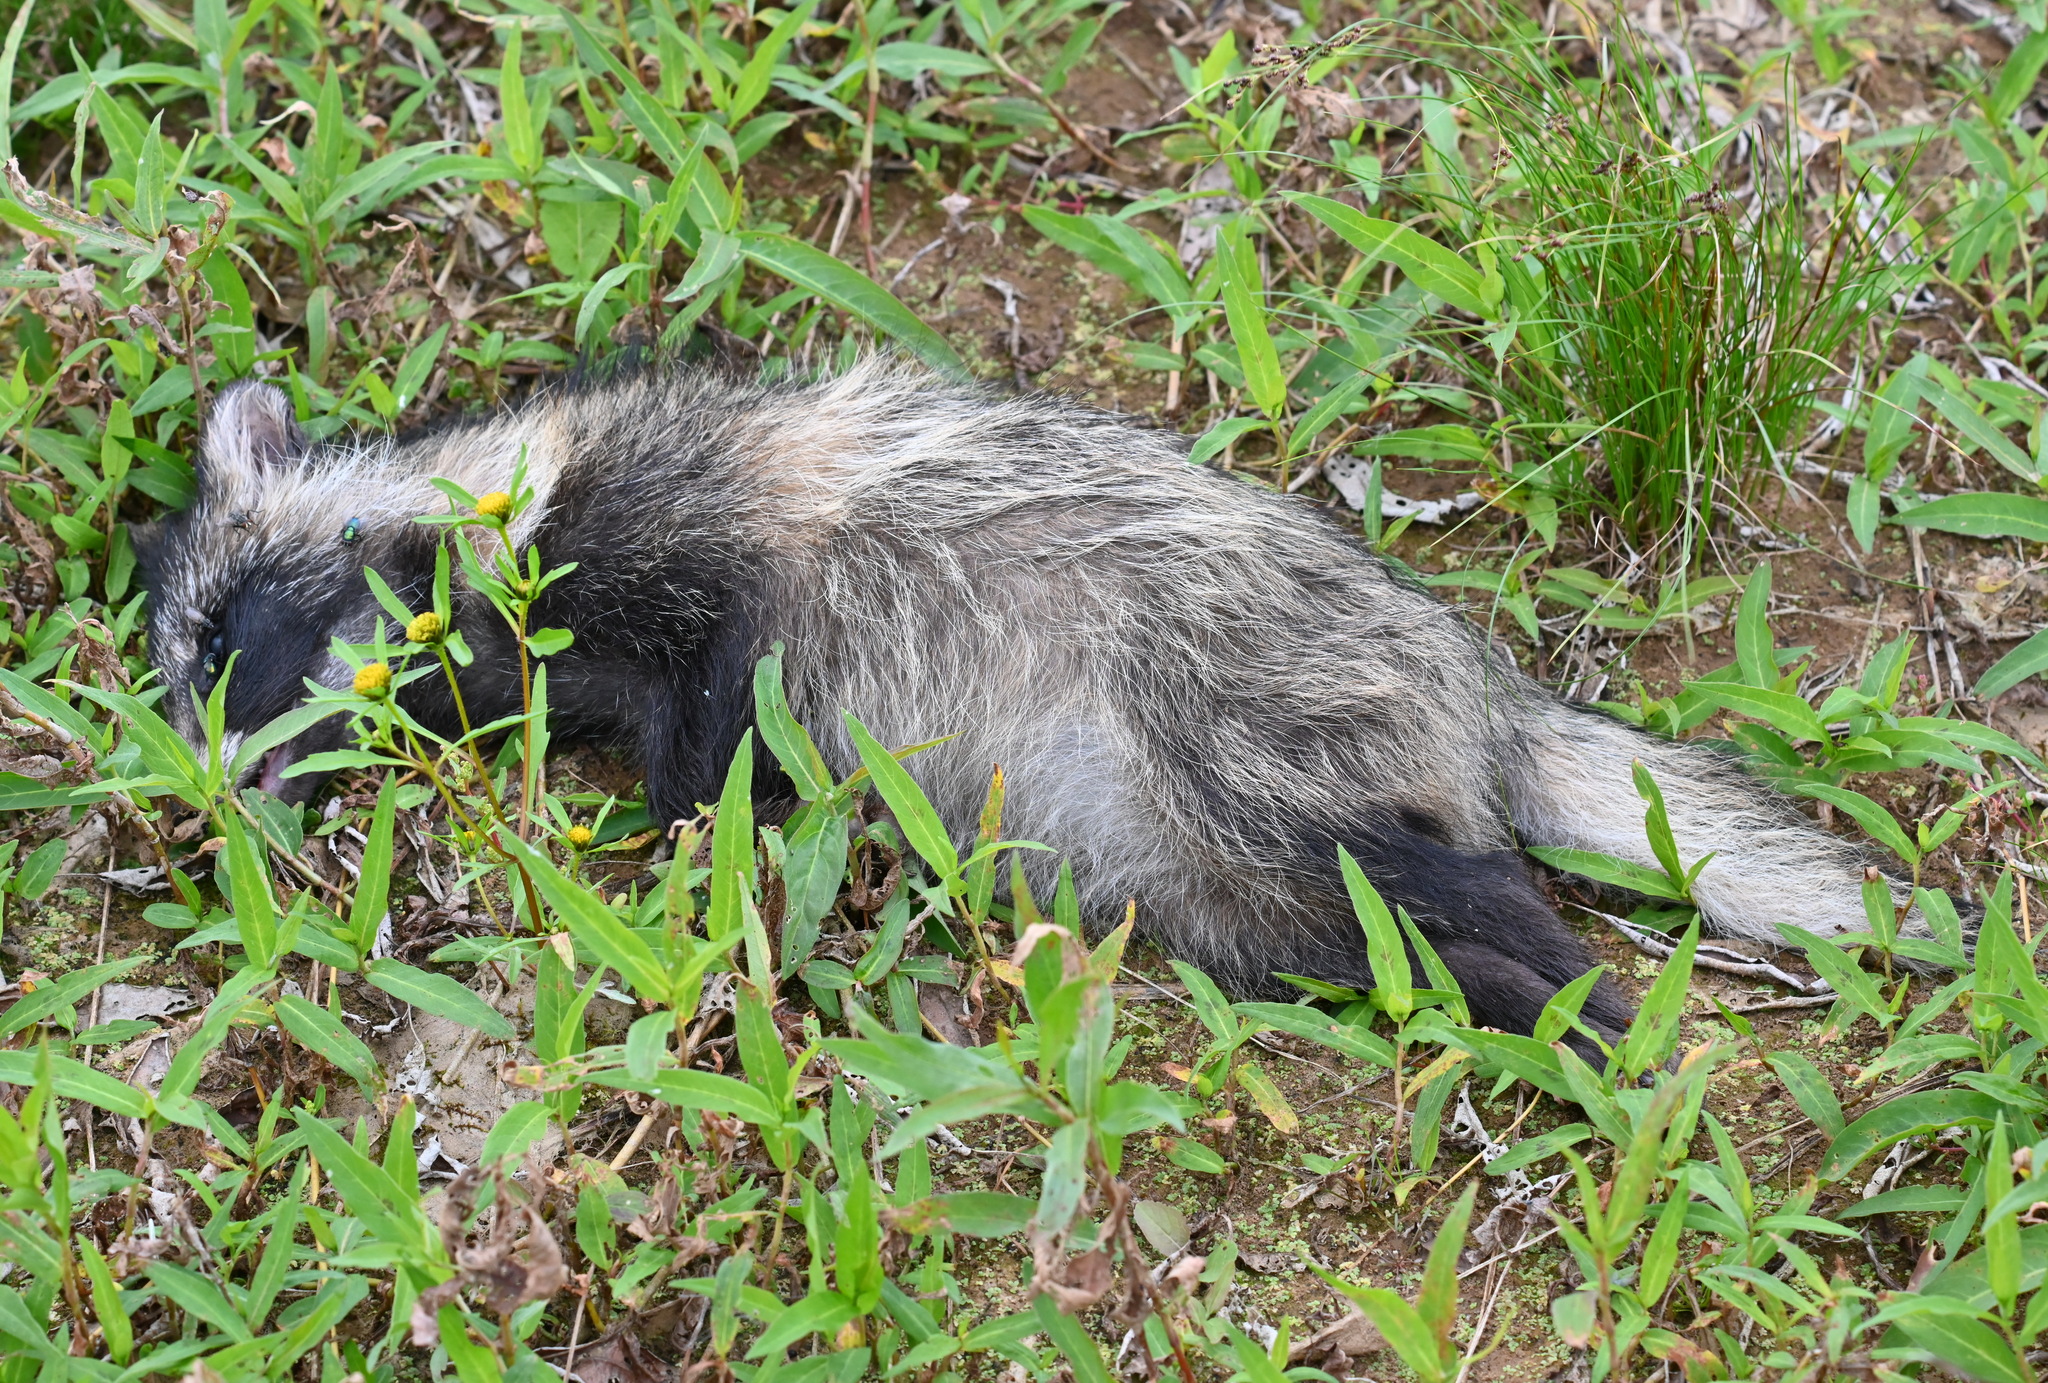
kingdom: Animalia
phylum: Chordata
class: Mammalia
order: Carnivora
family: Canidae
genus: Nyctereutes
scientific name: Nyctereutes procyonoides
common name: Raccoon dog
